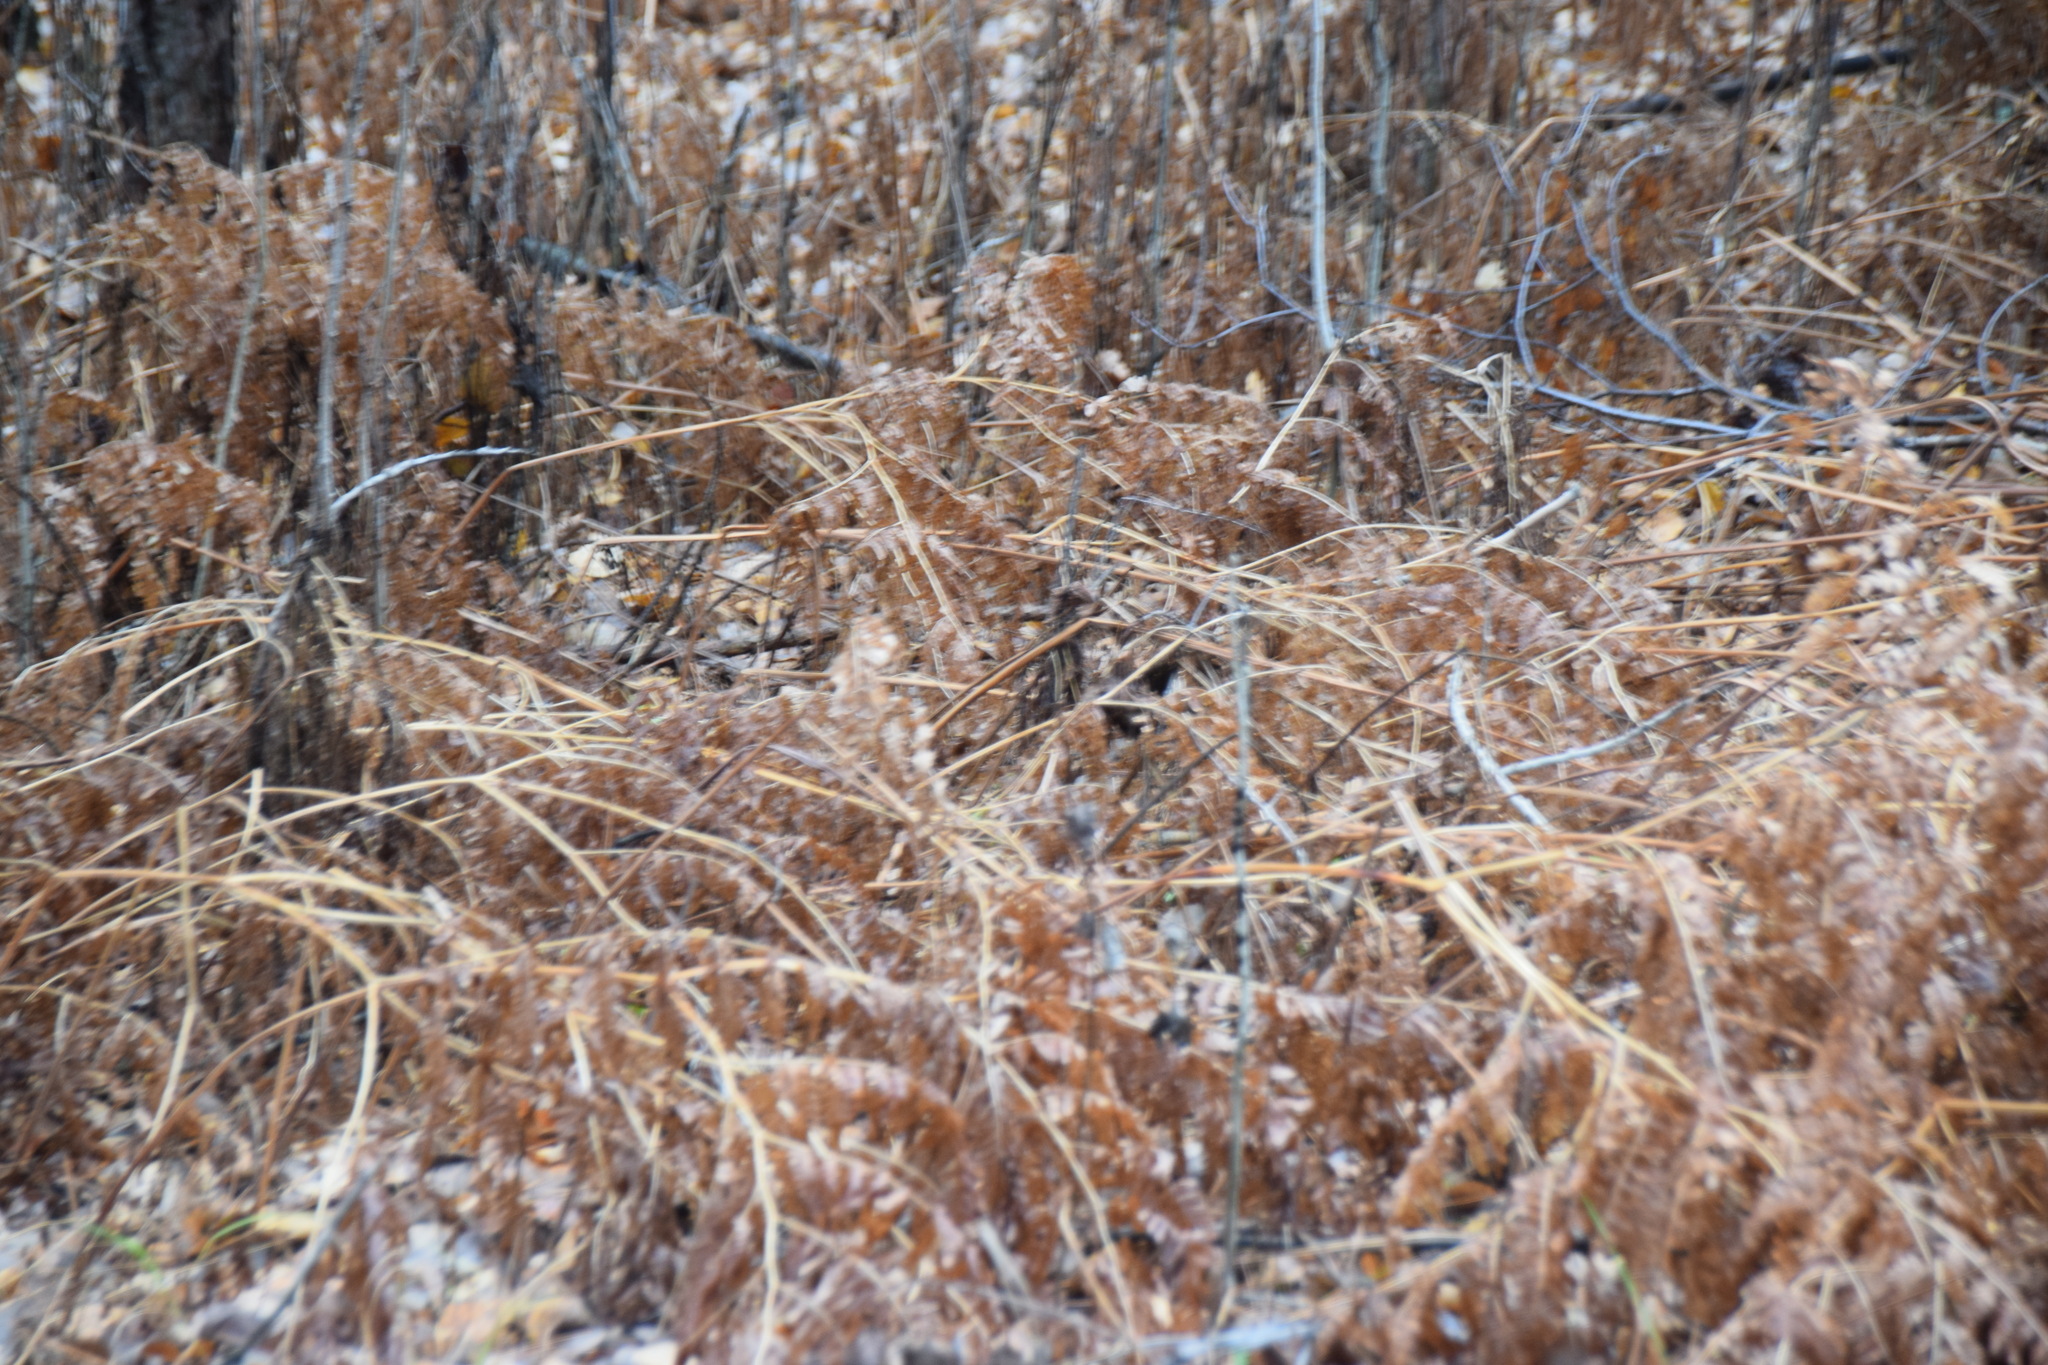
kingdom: Plantae
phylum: Tracheophyta
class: Polypodiopsida
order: Polypodiales
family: Dennstaedtiaceae
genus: Pteridium
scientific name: Pteridium aquilinum
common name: Bracken
